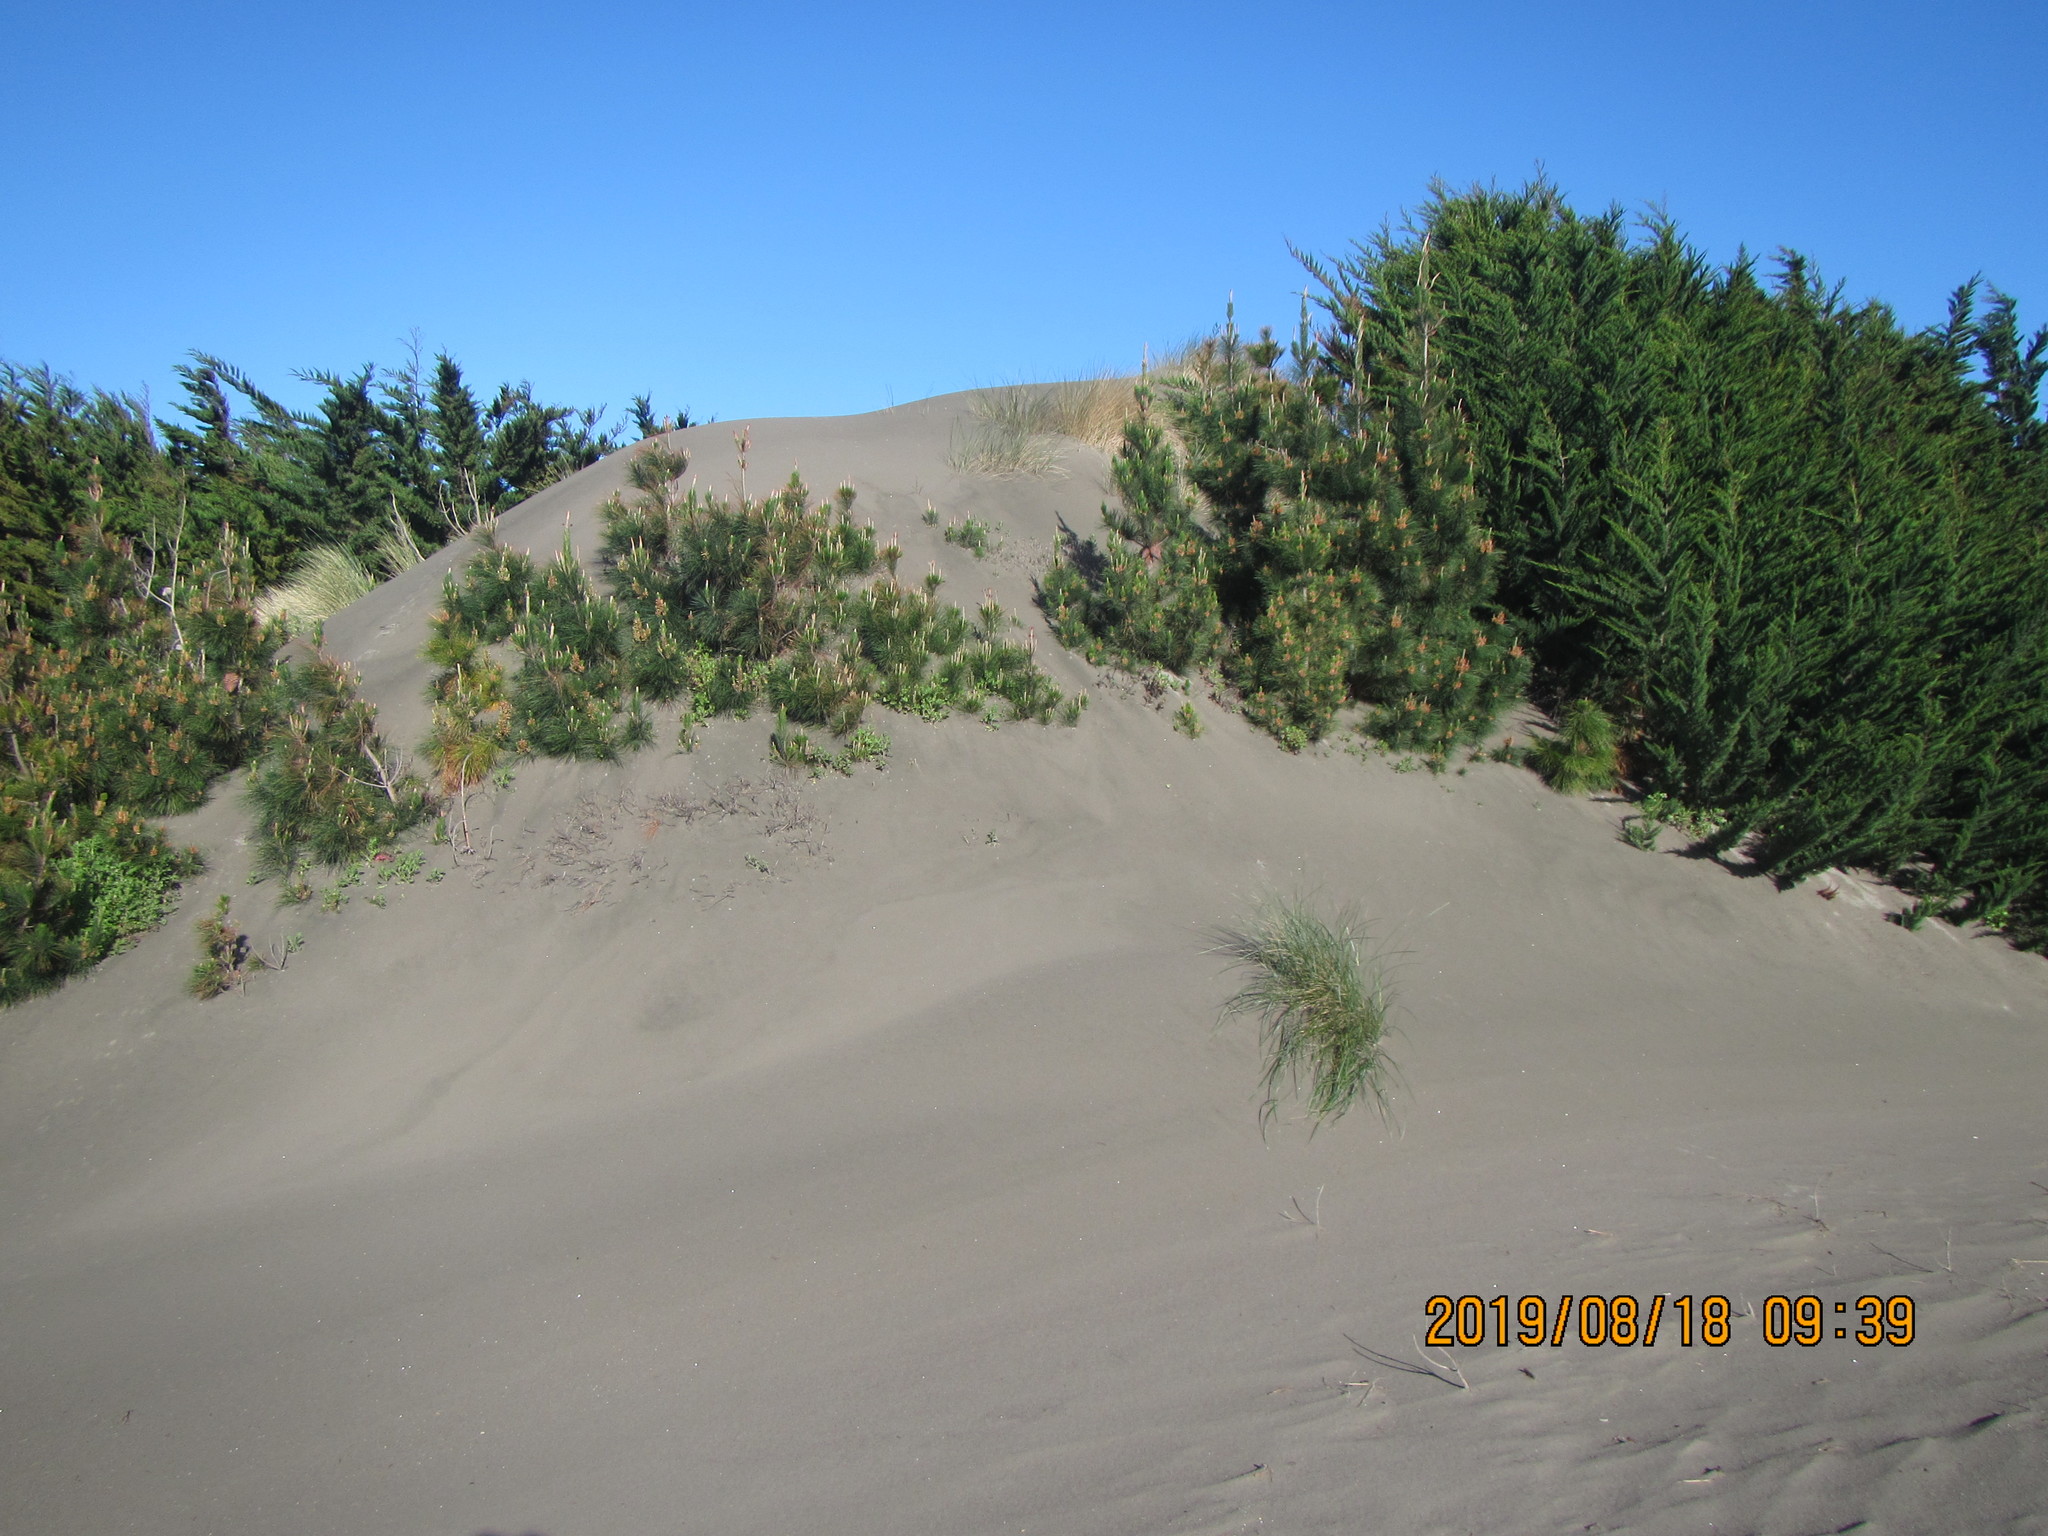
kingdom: Plantae
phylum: Tracheophyta
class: Pinopsida
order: Pinales
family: Pinaceae
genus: Pinus
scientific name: Pinus radiata
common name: Monterey pine
